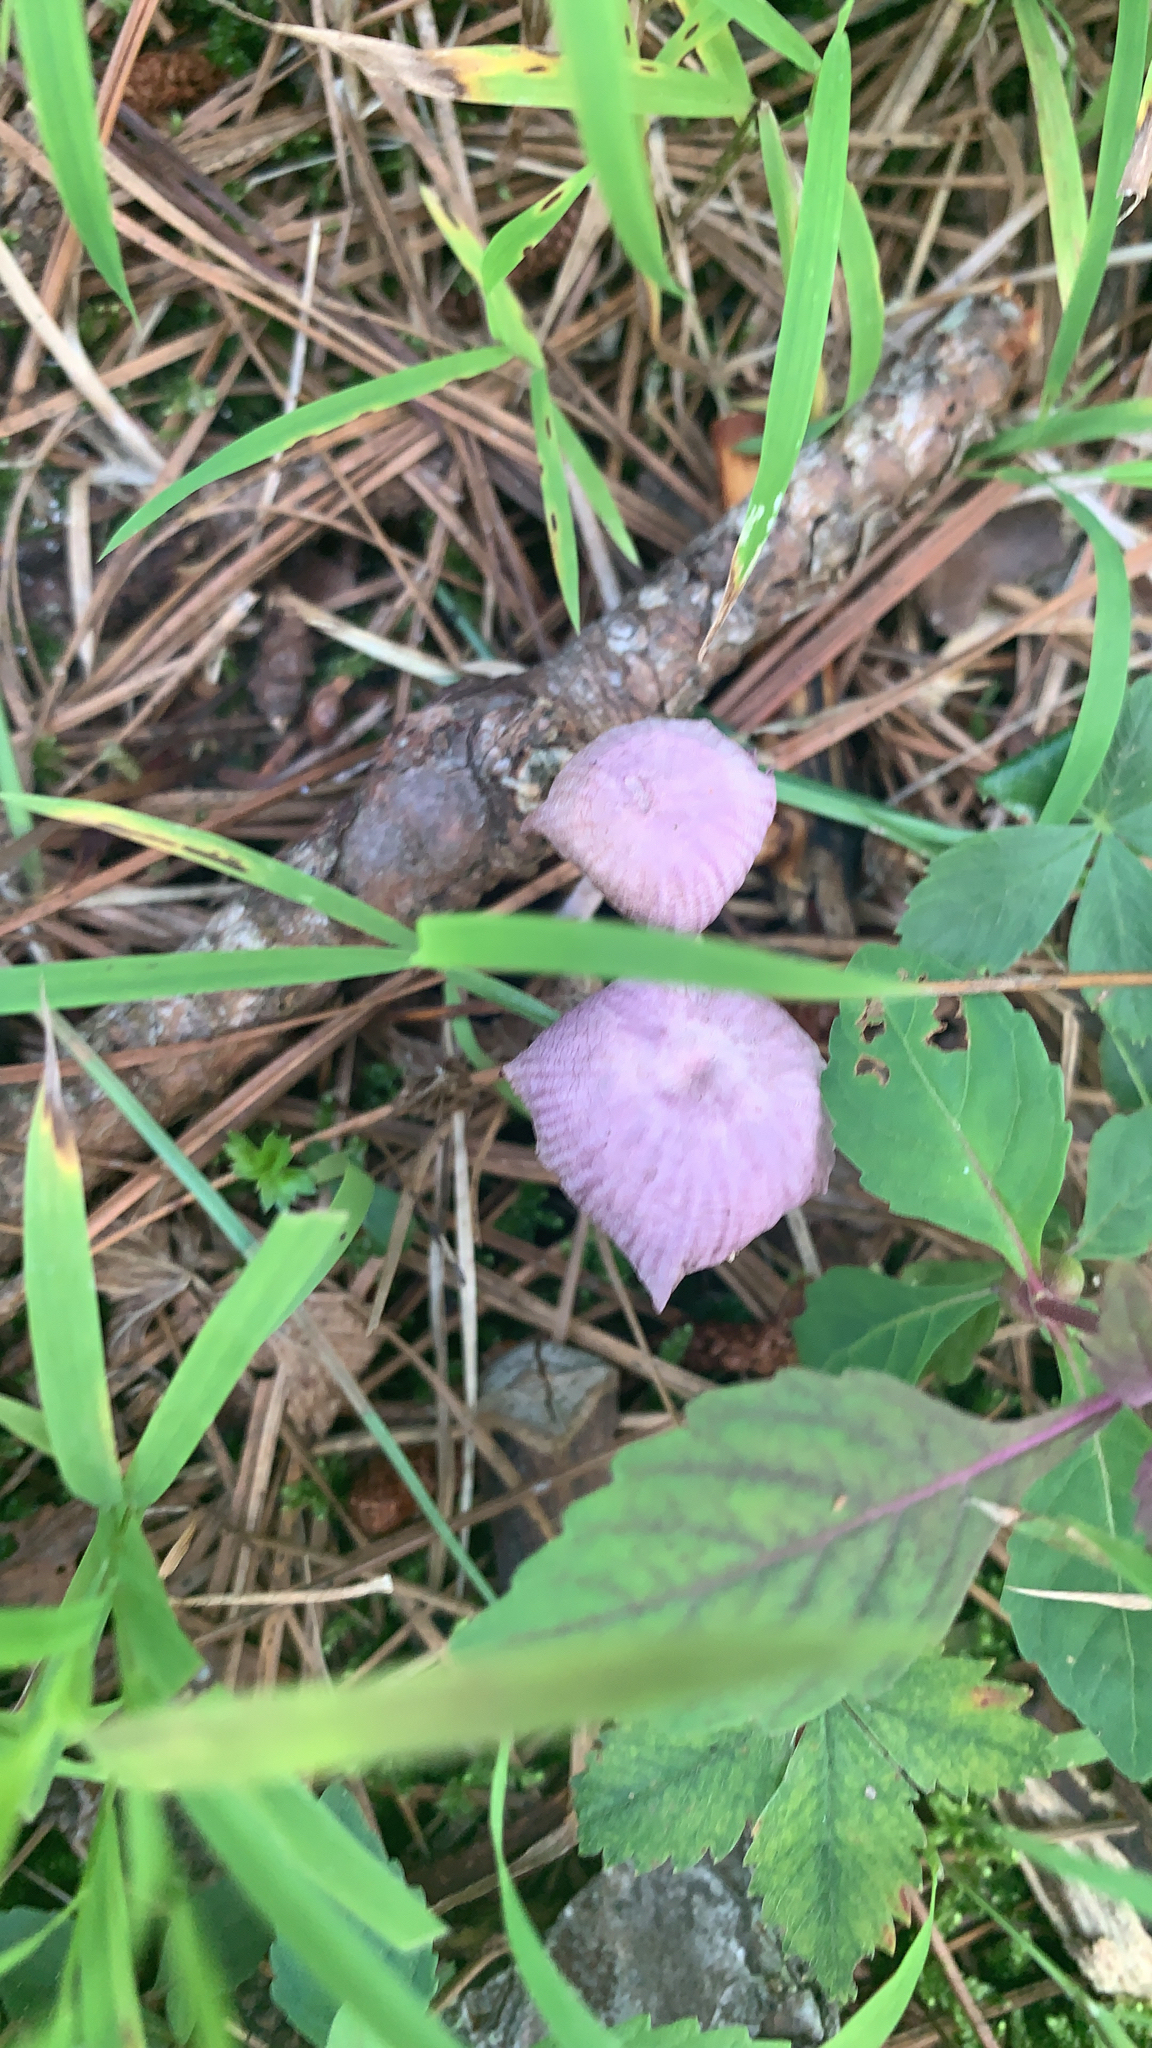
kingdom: Fungi
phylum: Basidiomycota
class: Agaricomycetes
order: Agaricales
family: Omphalotaceae
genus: Gymnopus
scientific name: Gymnopus iocephalus
